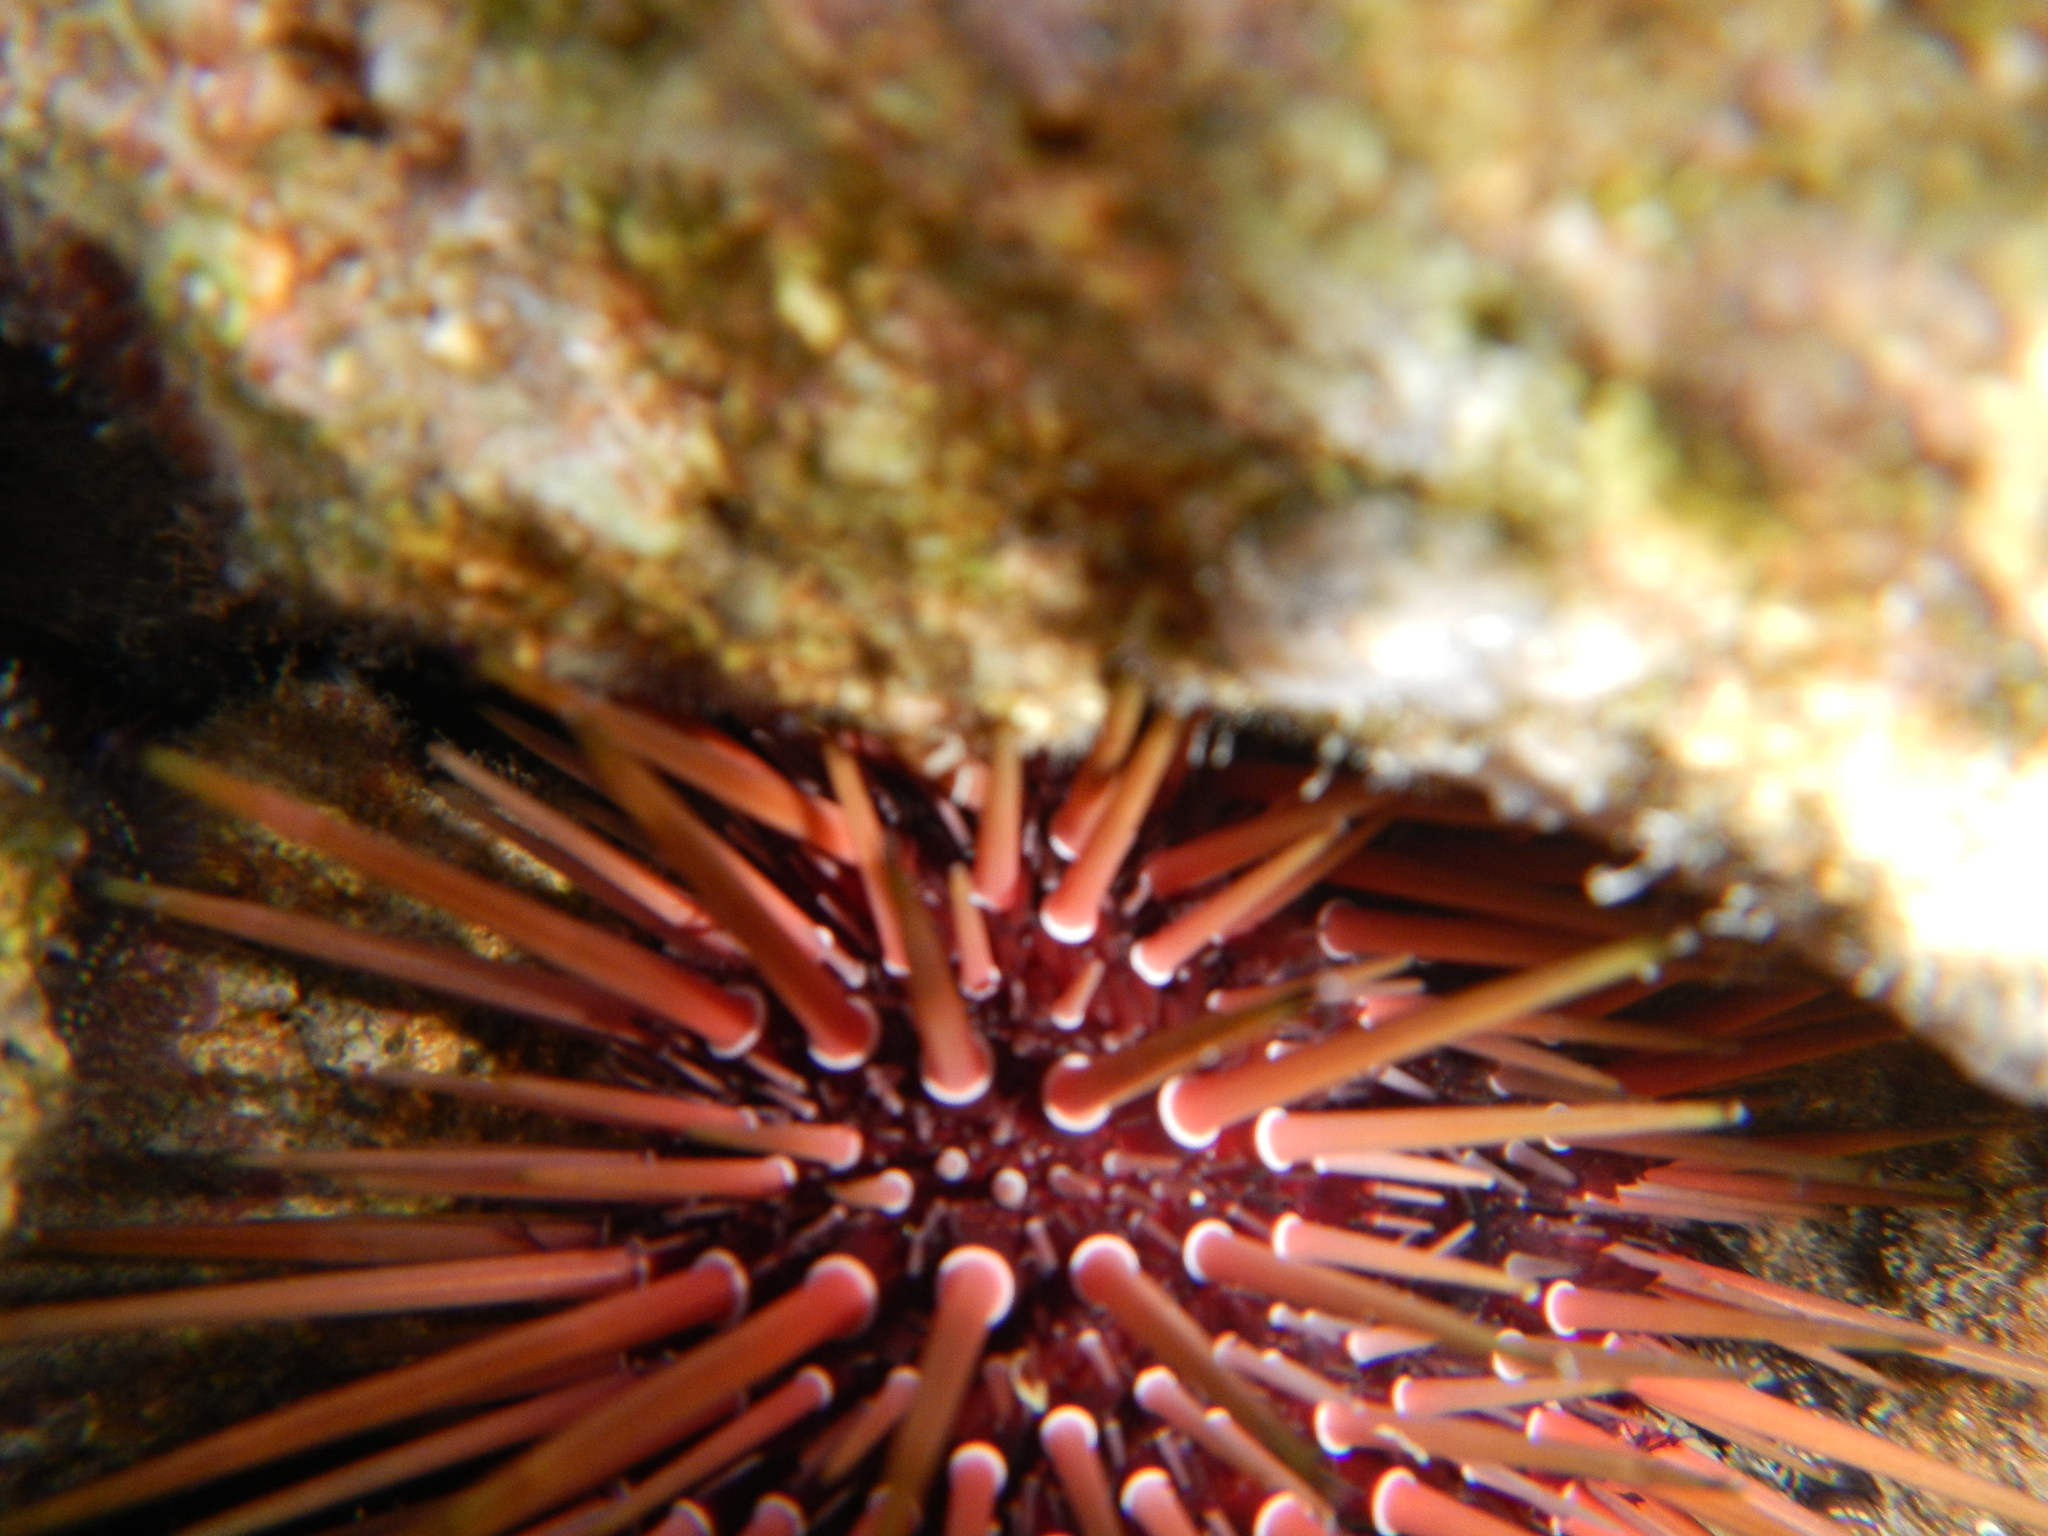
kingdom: Animalia
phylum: Echinodermata
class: Echinoidea
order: Camarodonta
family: Echinometridae
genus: Echinometra
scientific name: Echinometra viridis
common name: Reef urchin
